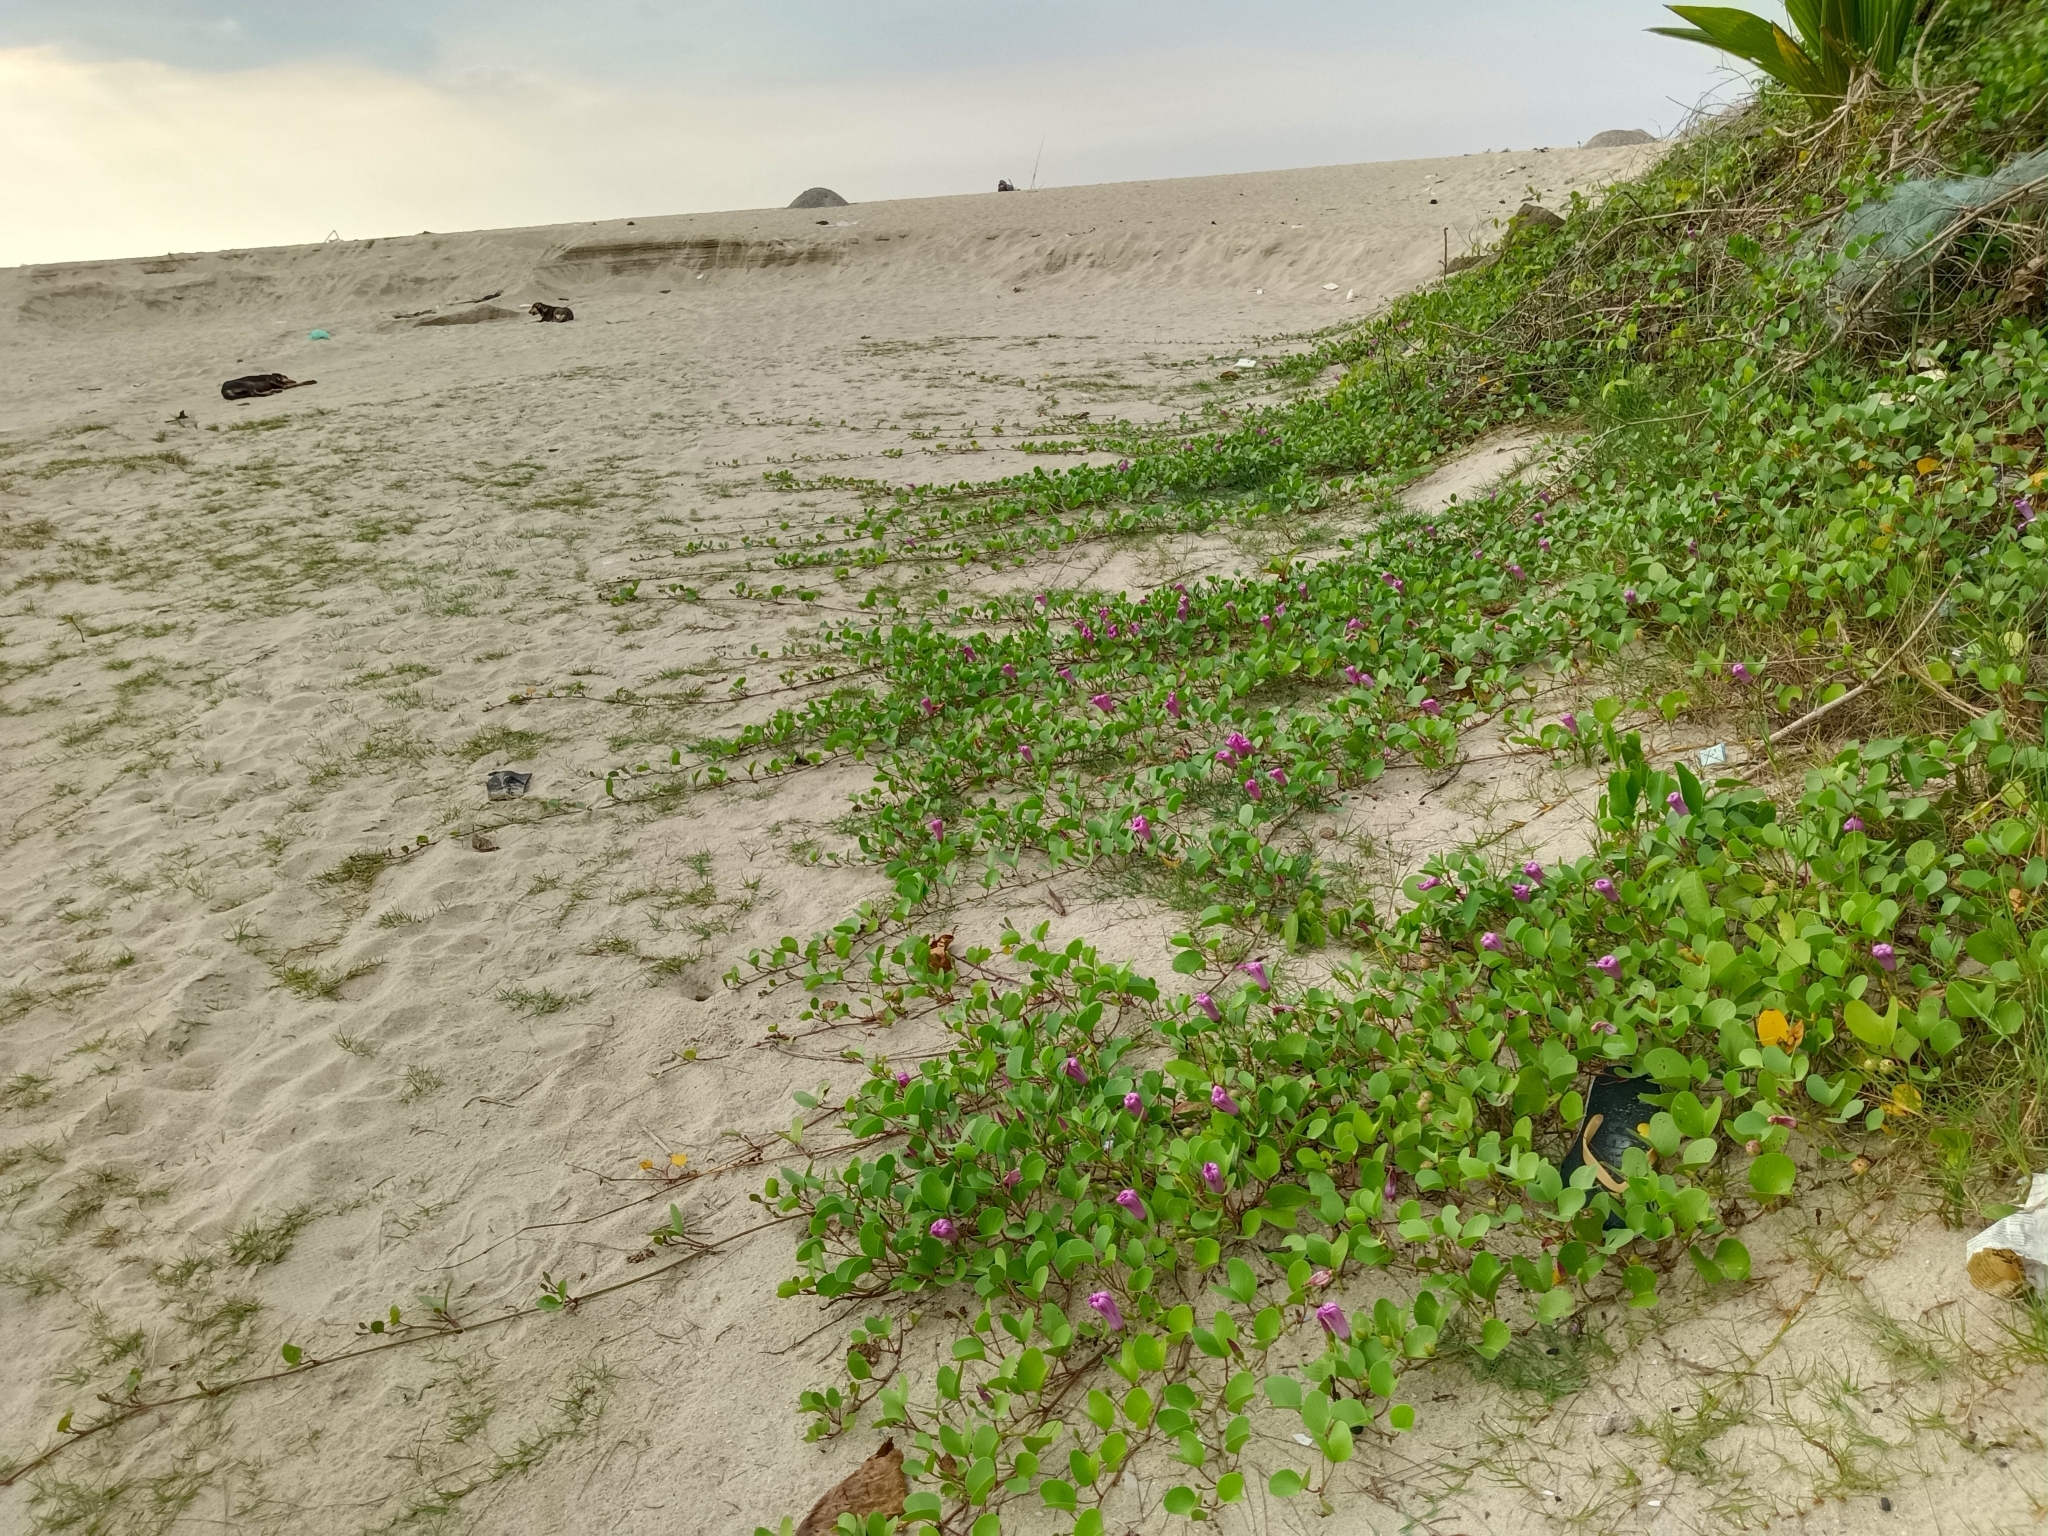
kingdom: Plantae
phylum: Tracheophyta
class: Magnoliopsida
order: Solanales
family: Convolvulaceae
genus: Ipomoea
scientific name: Ipomoea pes-caprae
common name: Beach morning glory
